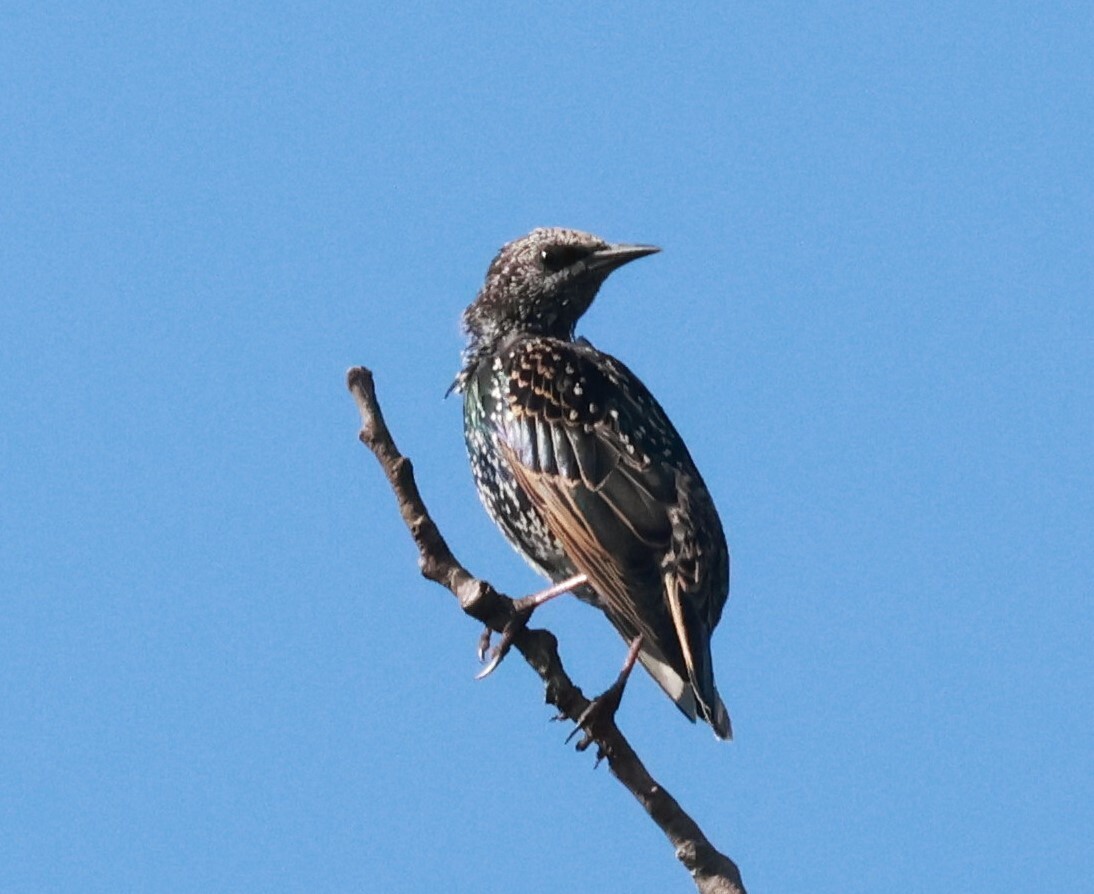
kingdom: Animalia
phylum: Chordata
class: Aves
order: Passeriformes
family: Sturnidae
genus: Sturnus
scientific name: Sturnus vulgaris
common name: Common starling
